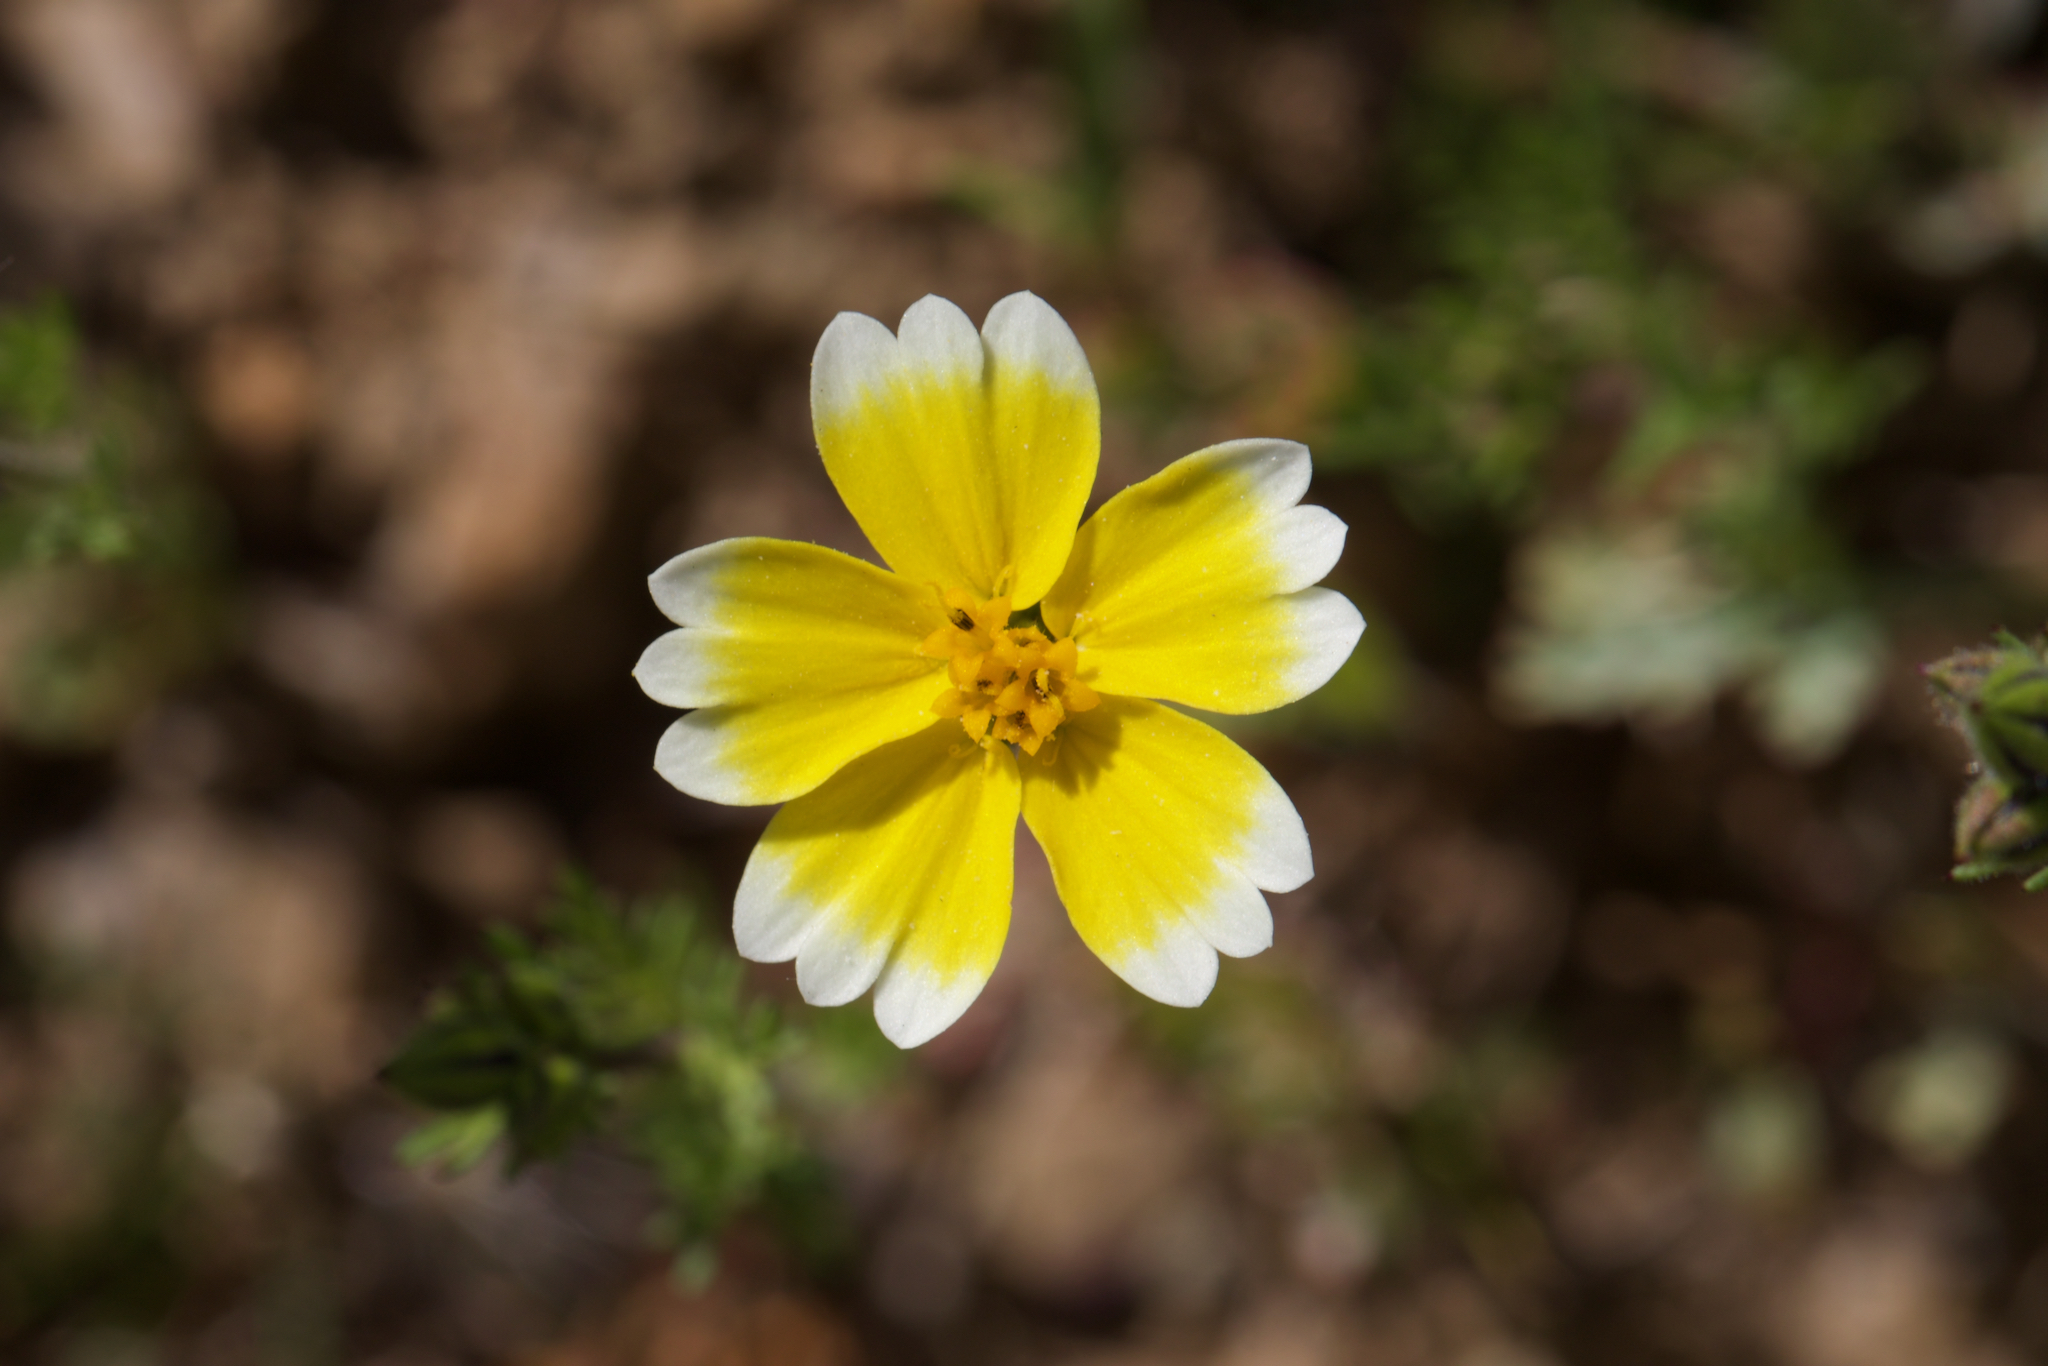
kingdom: Plantae
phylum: Tracheophyta
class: Magnoliopsida
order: Asterales
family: Asteraceae
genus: Layia
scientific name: Layia platyglossa
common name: Tidy-tips
